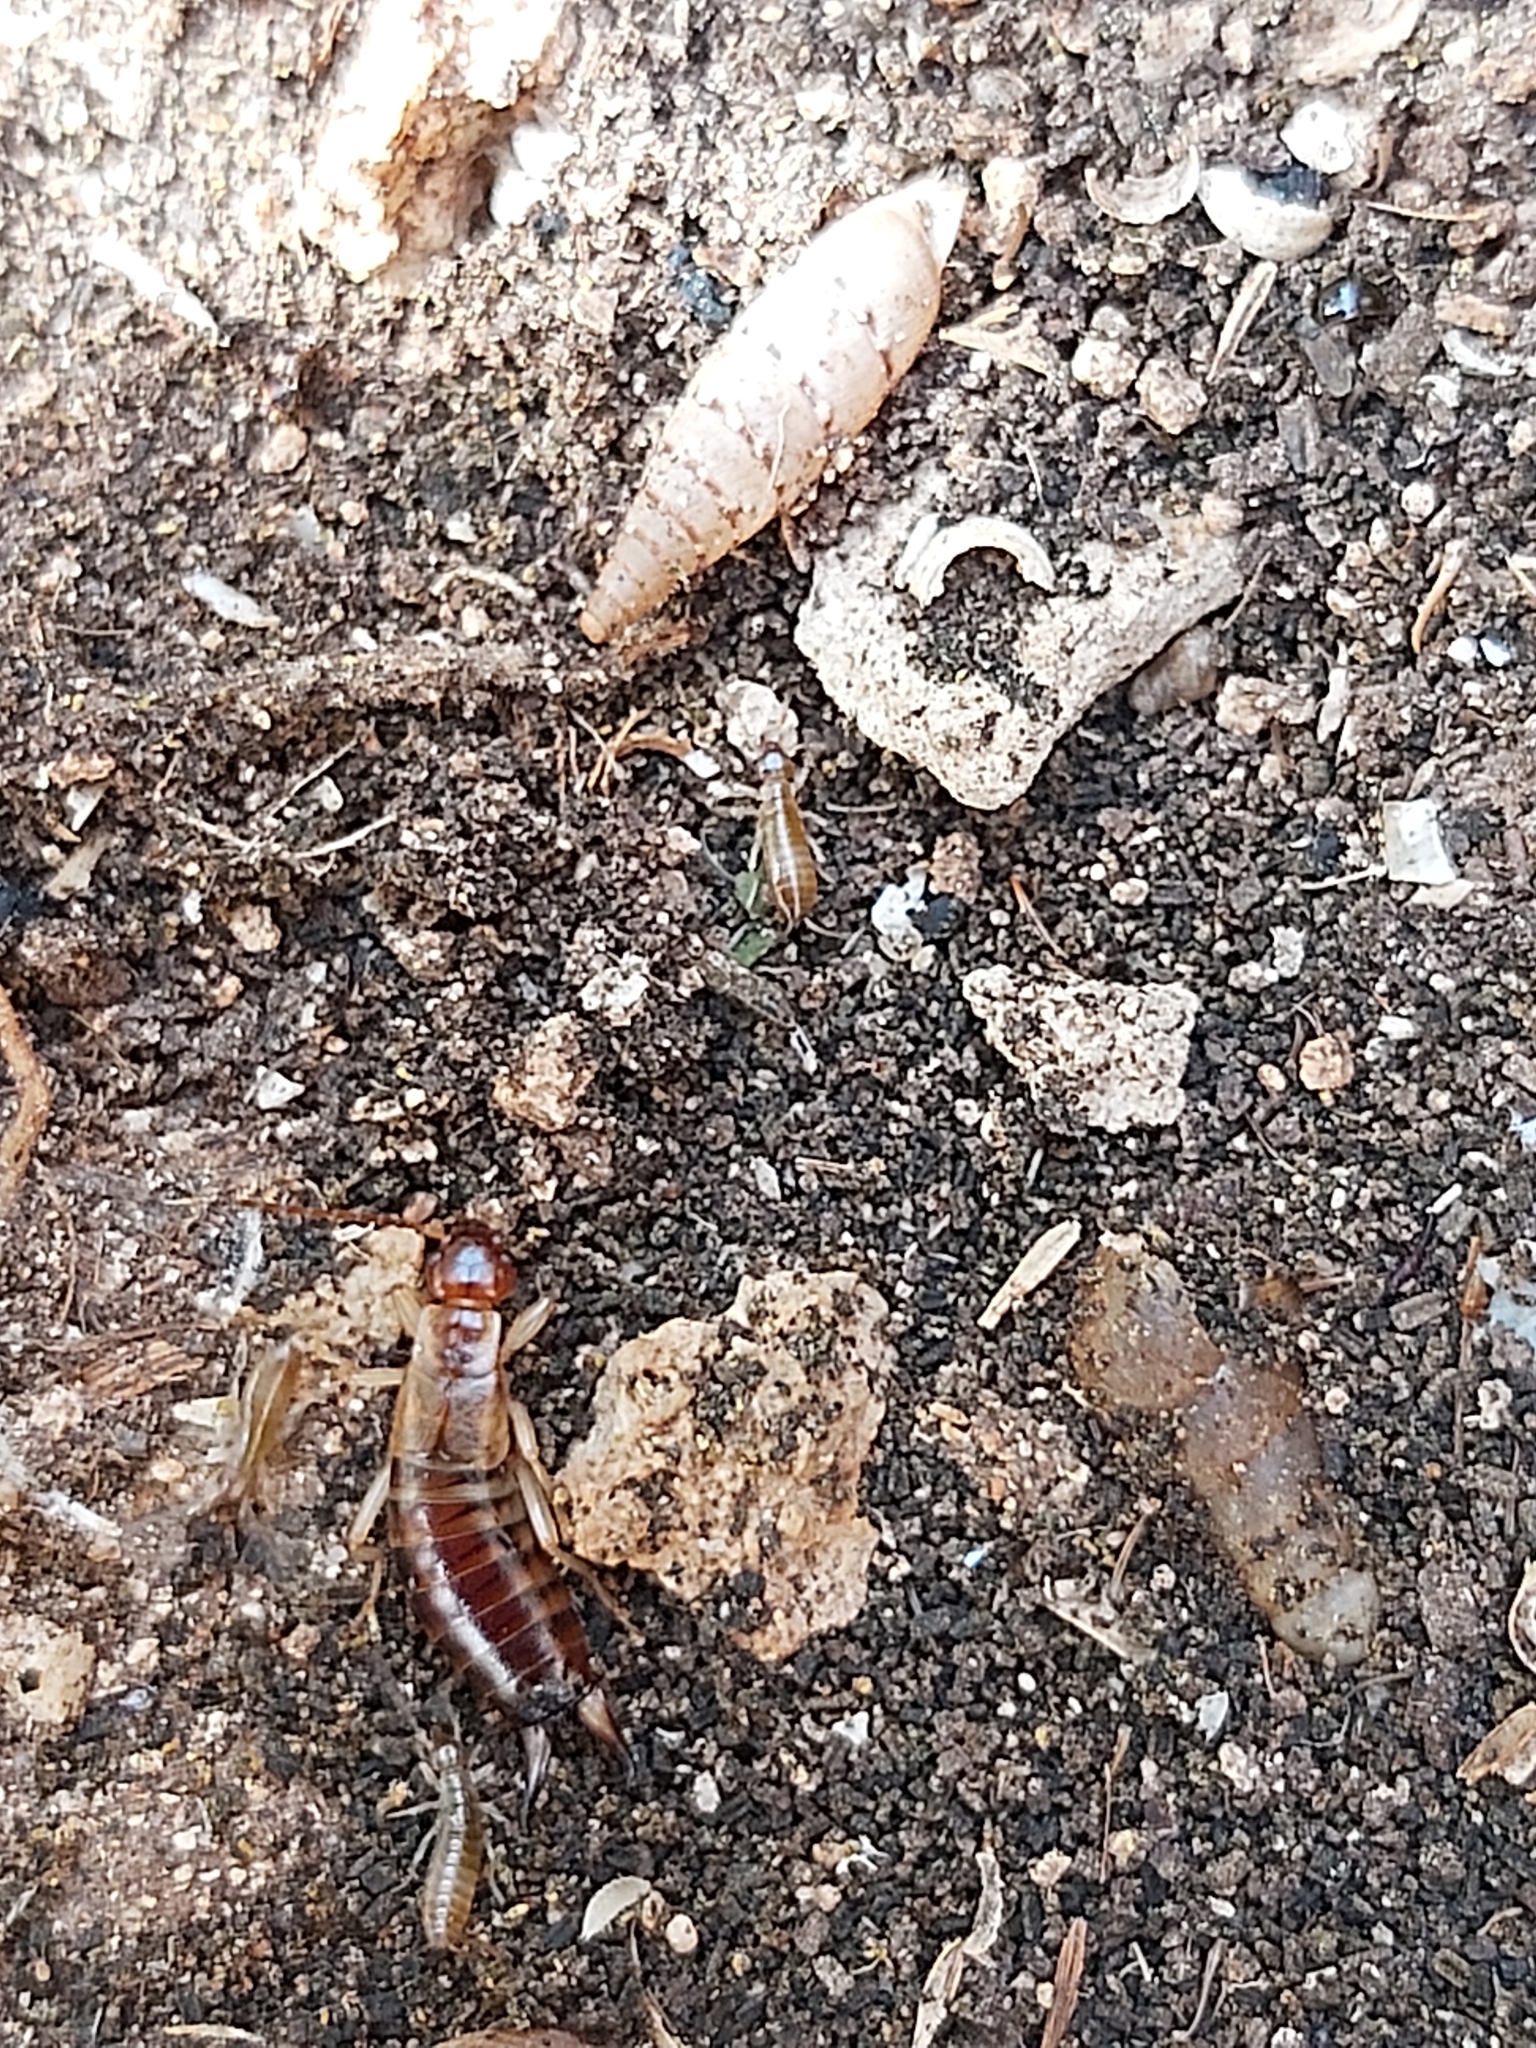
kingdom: Animalia
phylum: Arthropoda
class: Insecta
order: Dermaptera
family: Forficulidae
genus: Forficula
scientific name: Forficula decipiens
